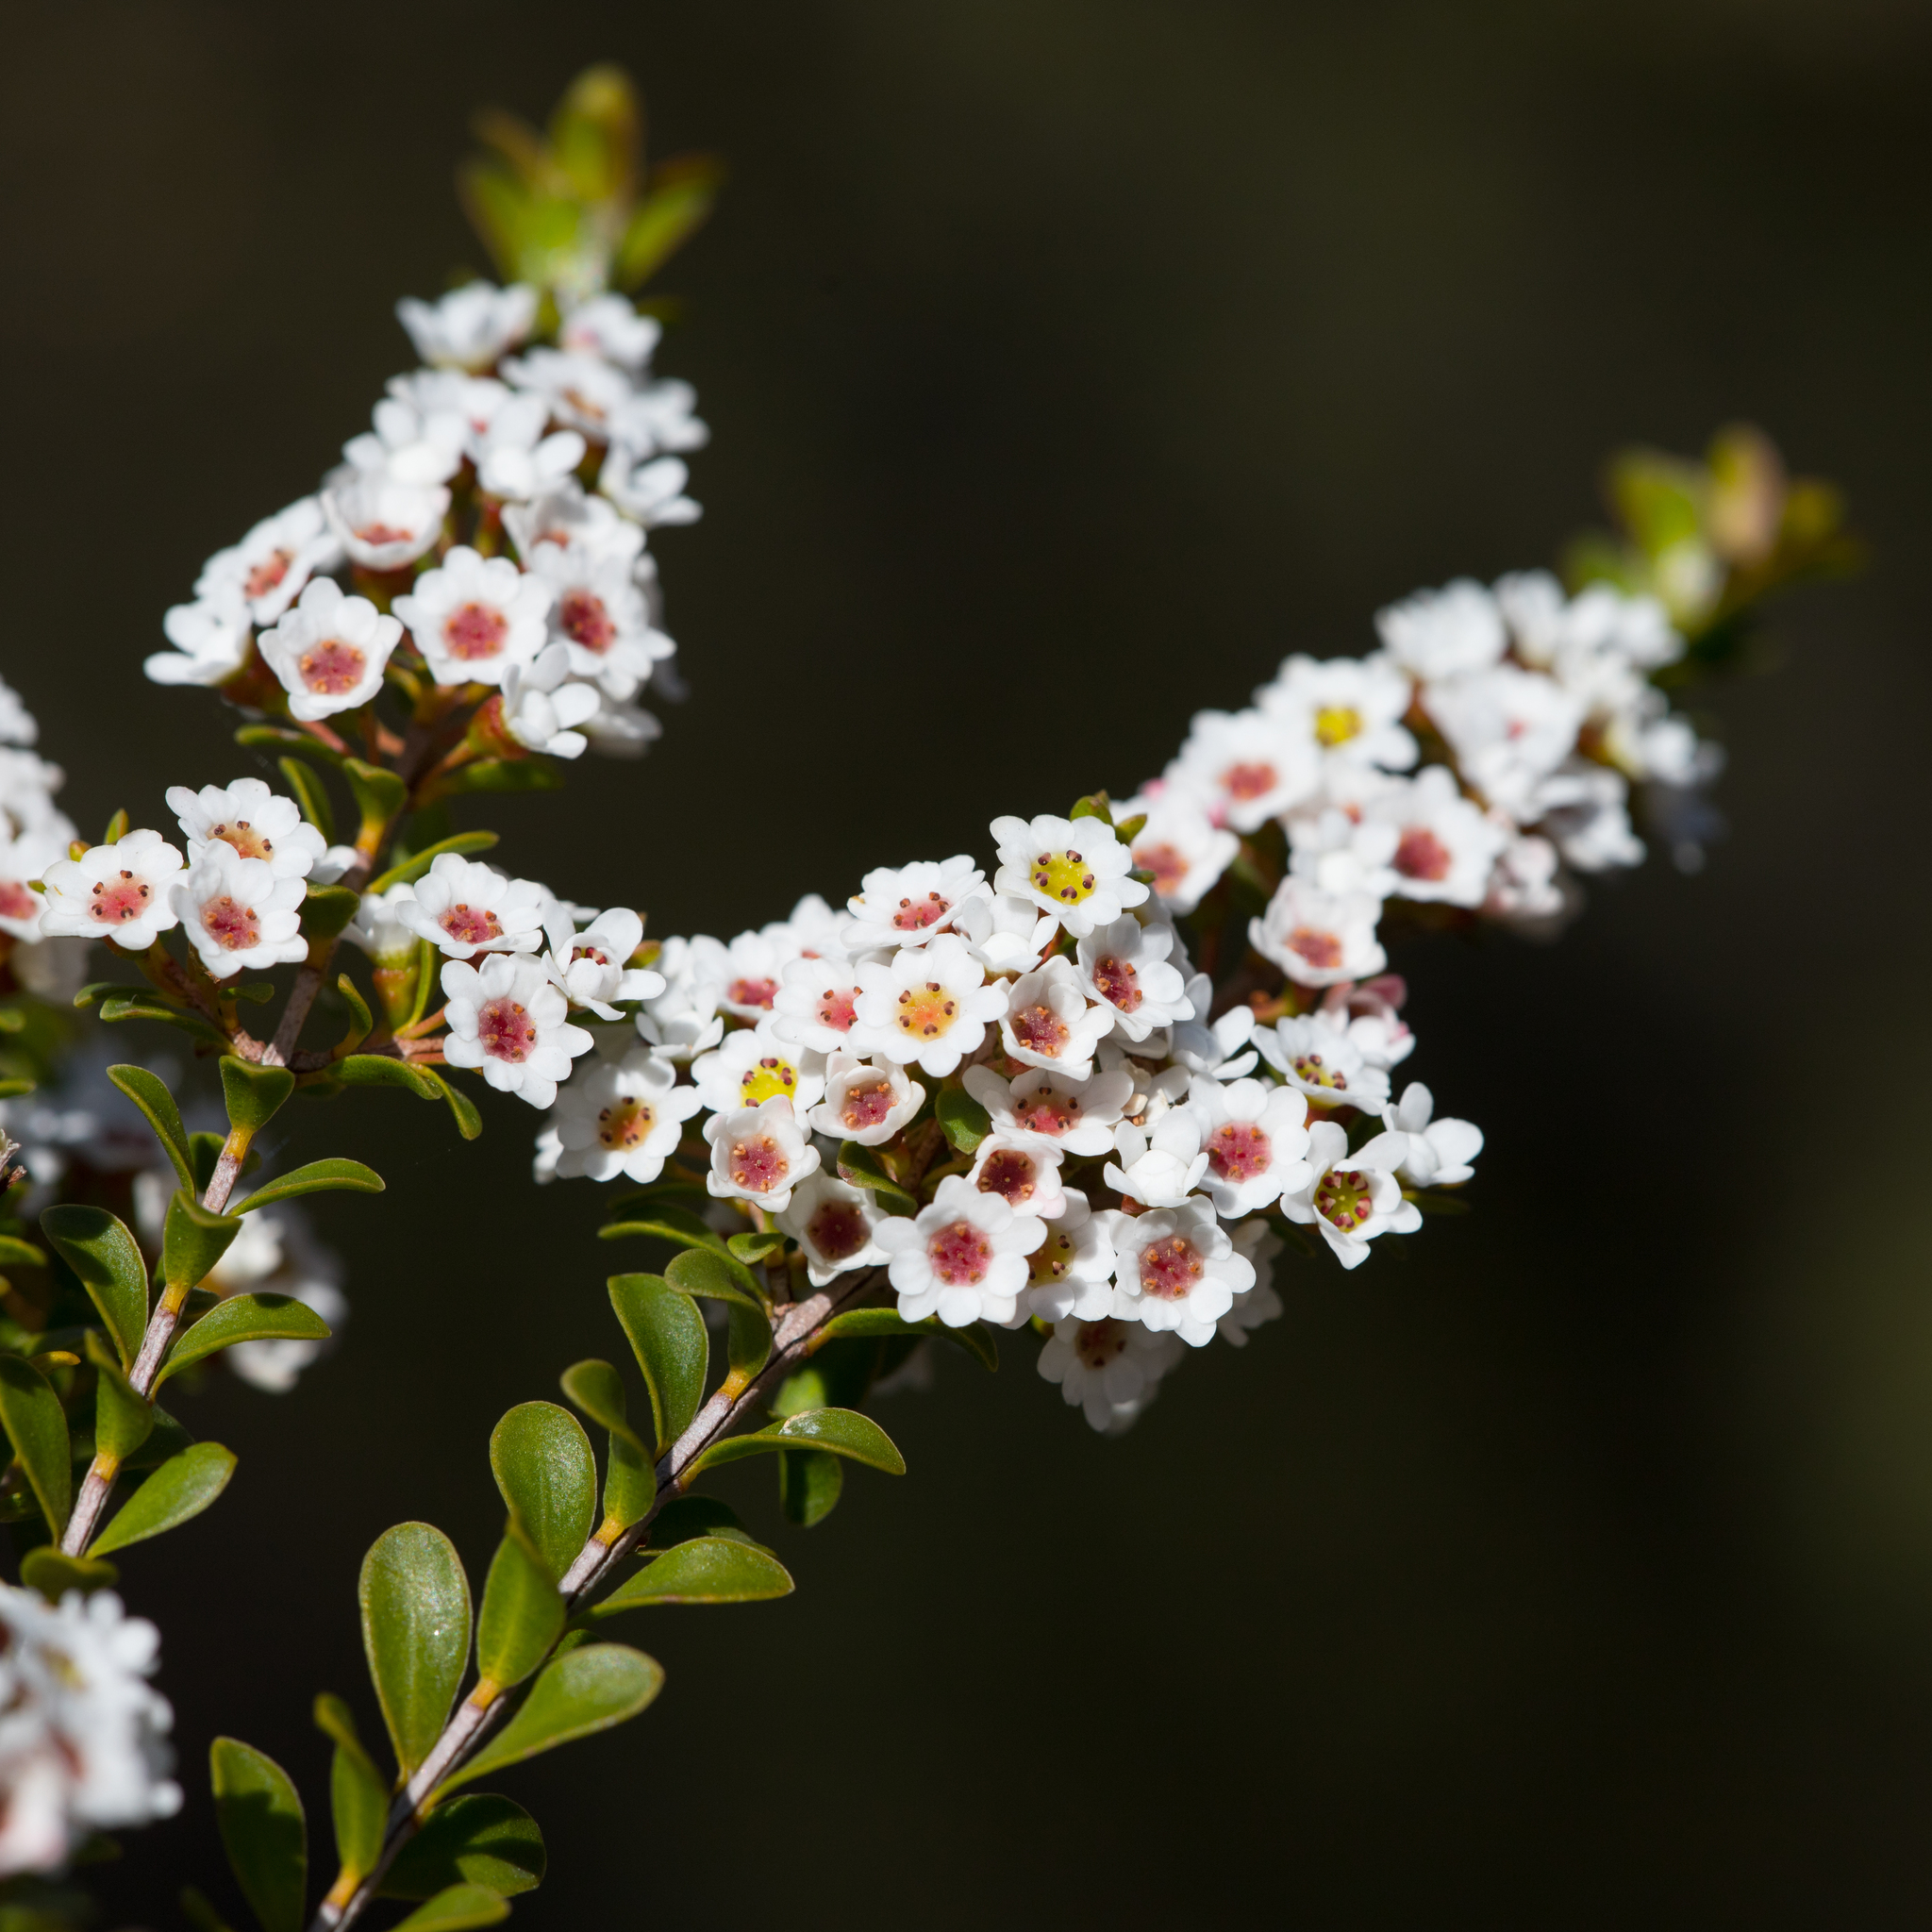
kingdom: Plantae
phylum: Tracheophyta
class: Magnoliopsida
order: Myrtales
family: Myrtaceae
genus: Thryptomene
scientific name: Thryptomene calycina
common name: Grampians thryptomene
